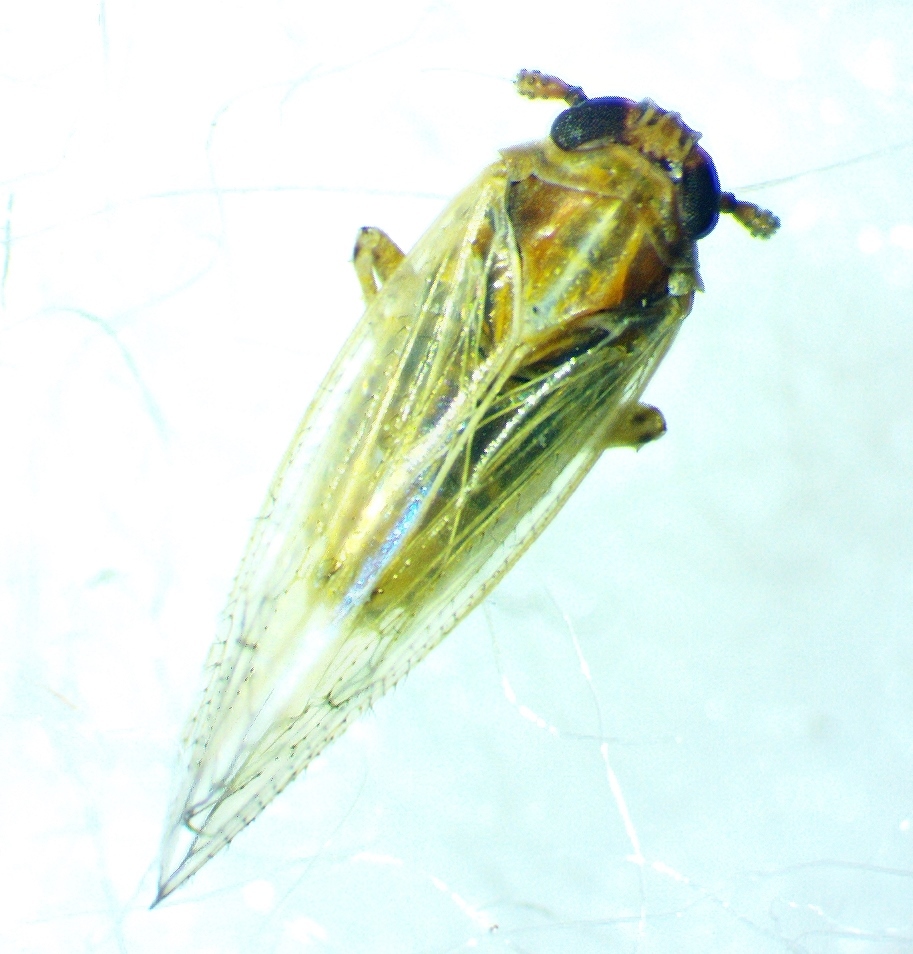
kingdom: Animalia
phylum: Arthropoda
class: Insecta
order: Hemiptera
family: Delphacidae
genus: Metadelphax
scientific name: Metadelphax propinquus
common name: Plant hopper
